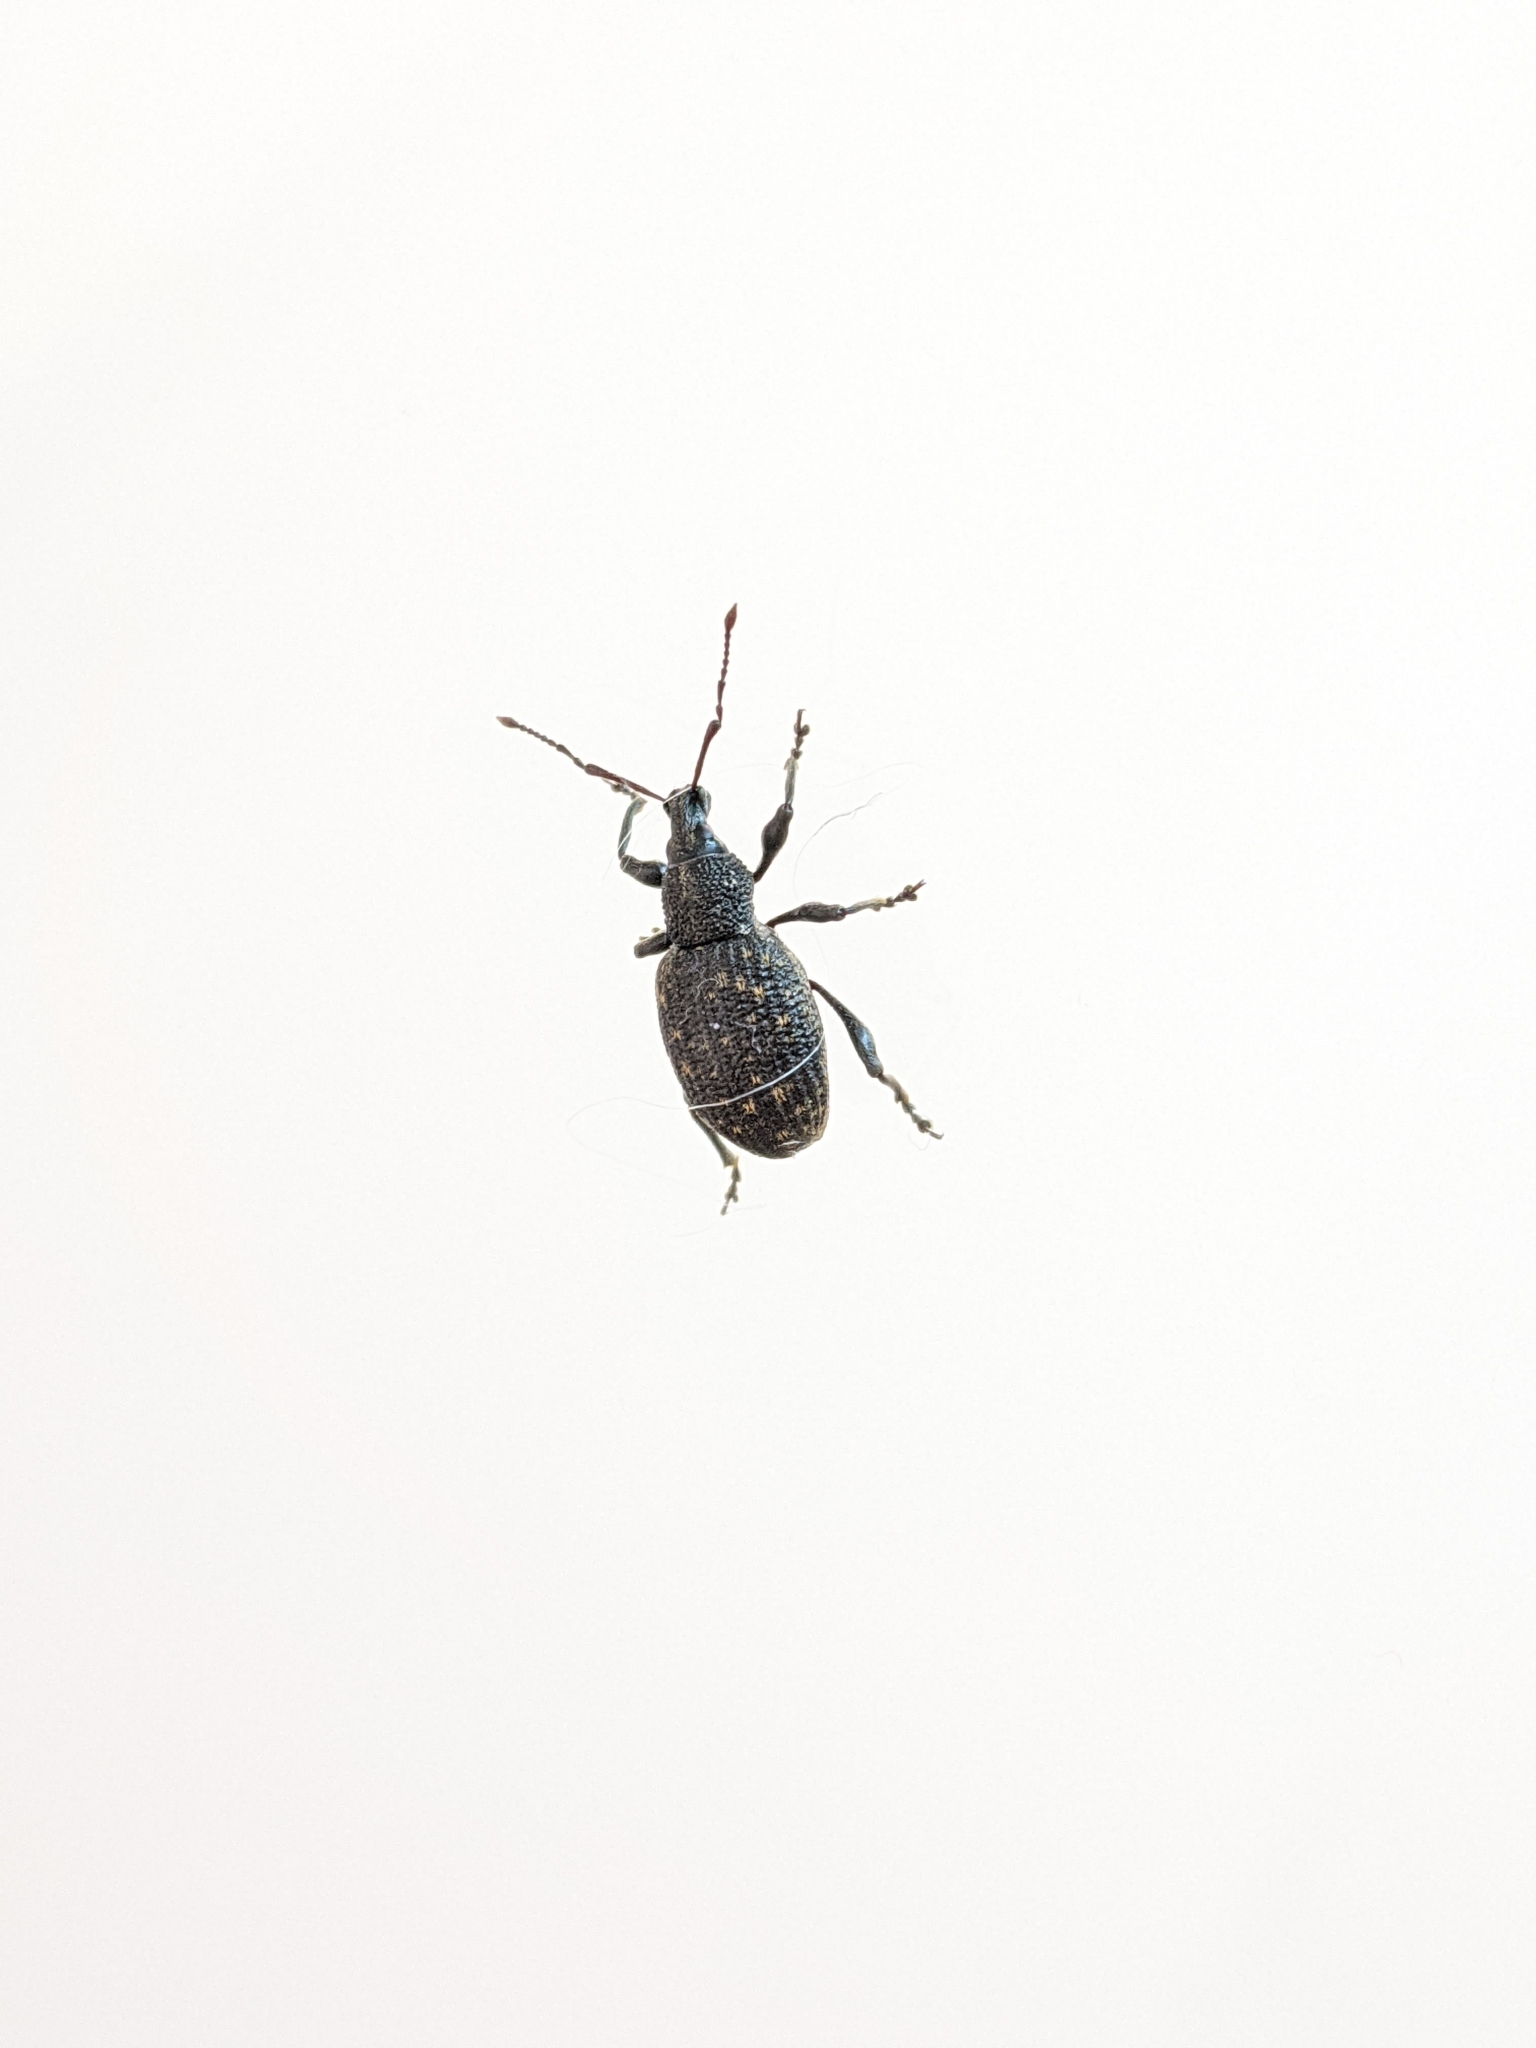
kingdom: Animalia
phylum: Arthropoda
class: Insecta
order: Coleoptera
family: Curculionidae
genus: Otiorhynchus
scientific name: Otiorhynchus sulcatus
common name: Black vine weevil
